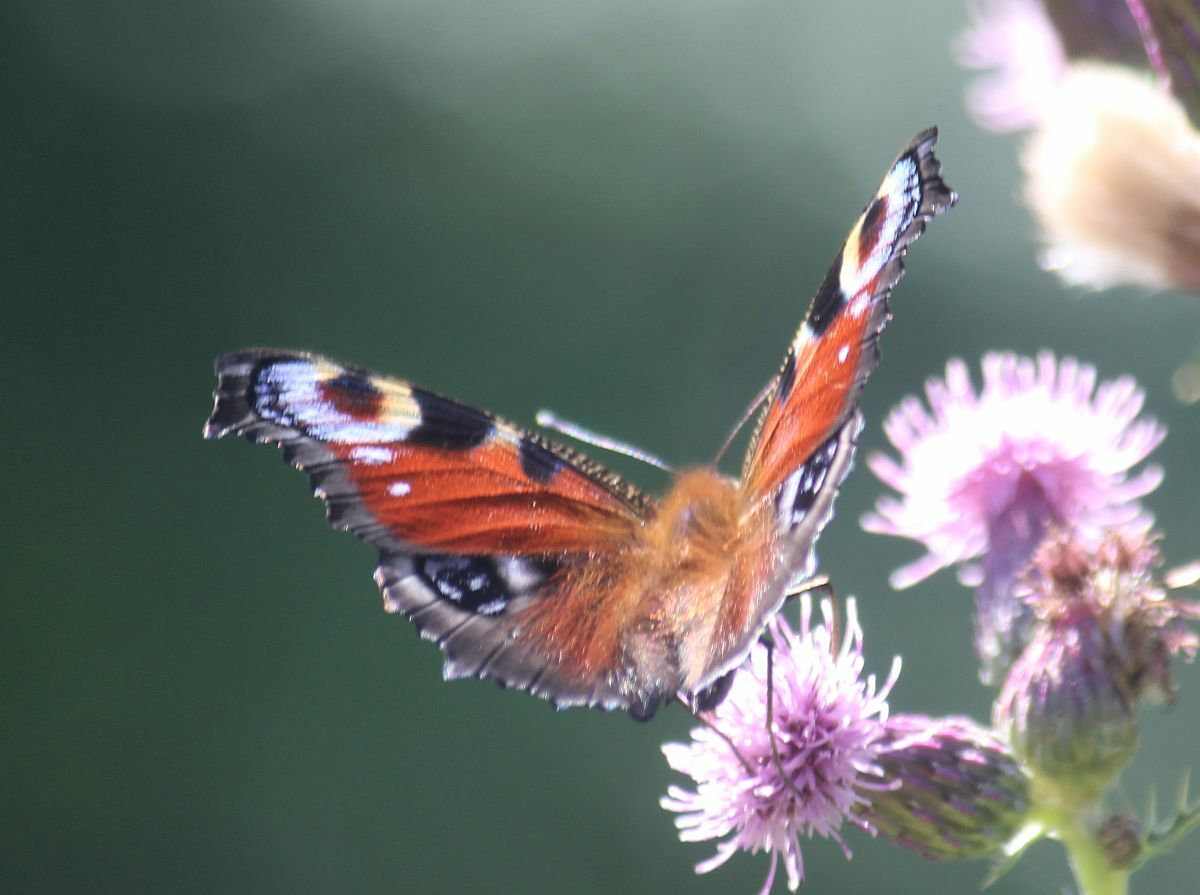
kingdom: Animalia
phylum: Arthropoda
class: Insecta
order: Lepidoptera
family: Nymphalidae
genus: Aglais
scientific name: Aglais io
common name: Peacock
